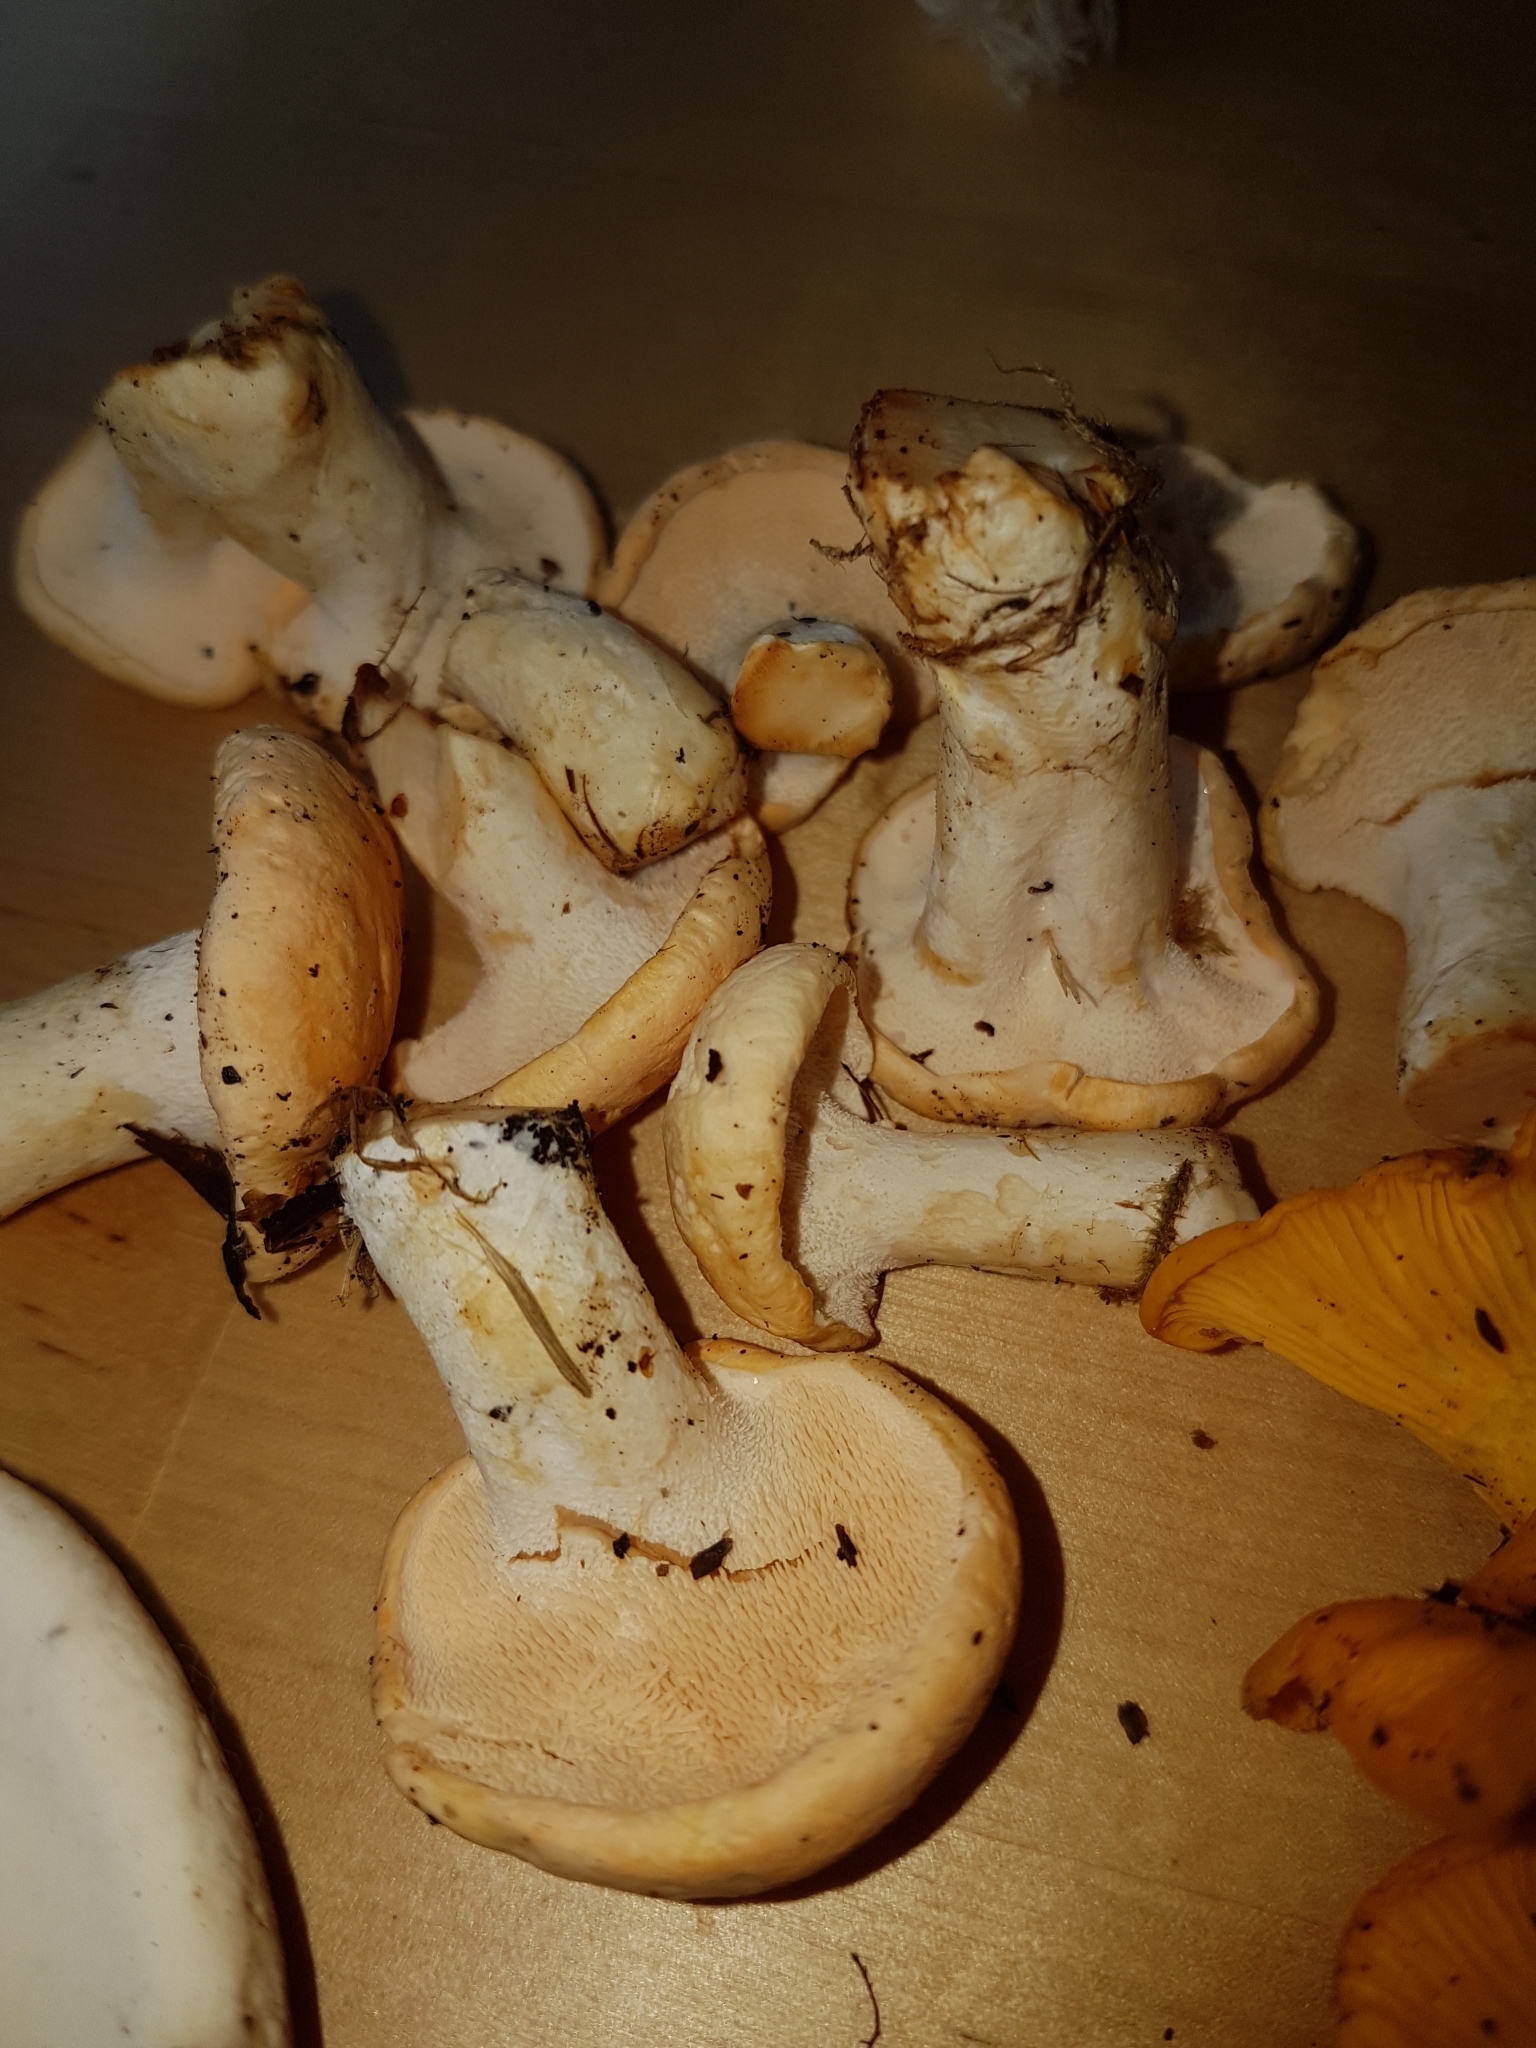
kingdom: Fungi
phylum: Basidiomycota
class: Agaricomycetes
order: Cantharellales
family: Hydnaceae
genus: Hydnum
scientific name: Hydnum repandum
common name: Wood hedgehog
